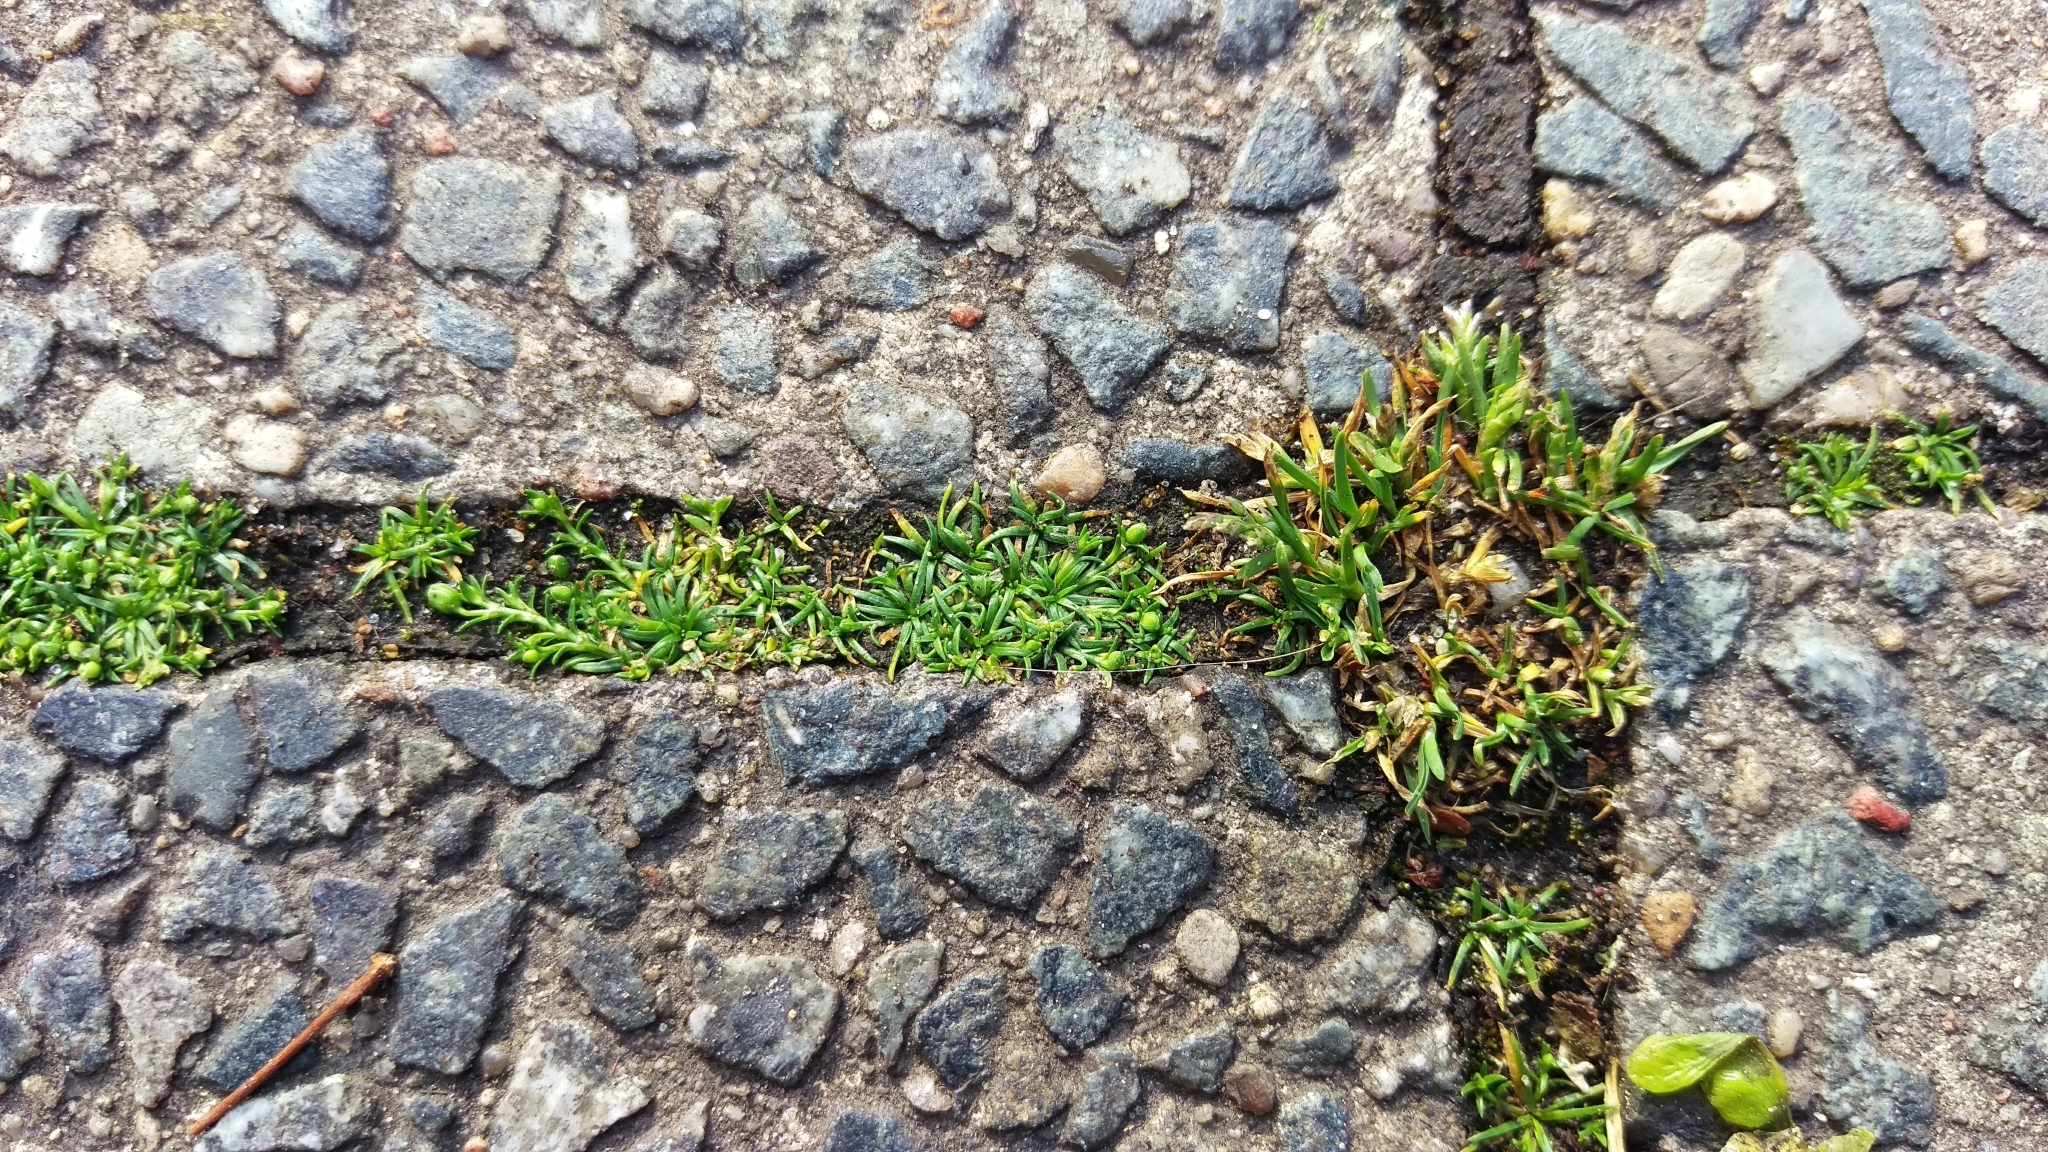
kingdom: Plantae
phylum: Tracheophyta
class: Magnoliopsida
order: Caryophyllales
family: Caryophyllaceae
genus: Sagina
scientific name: Sagina procumbens
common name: Procumbent pearlwort
